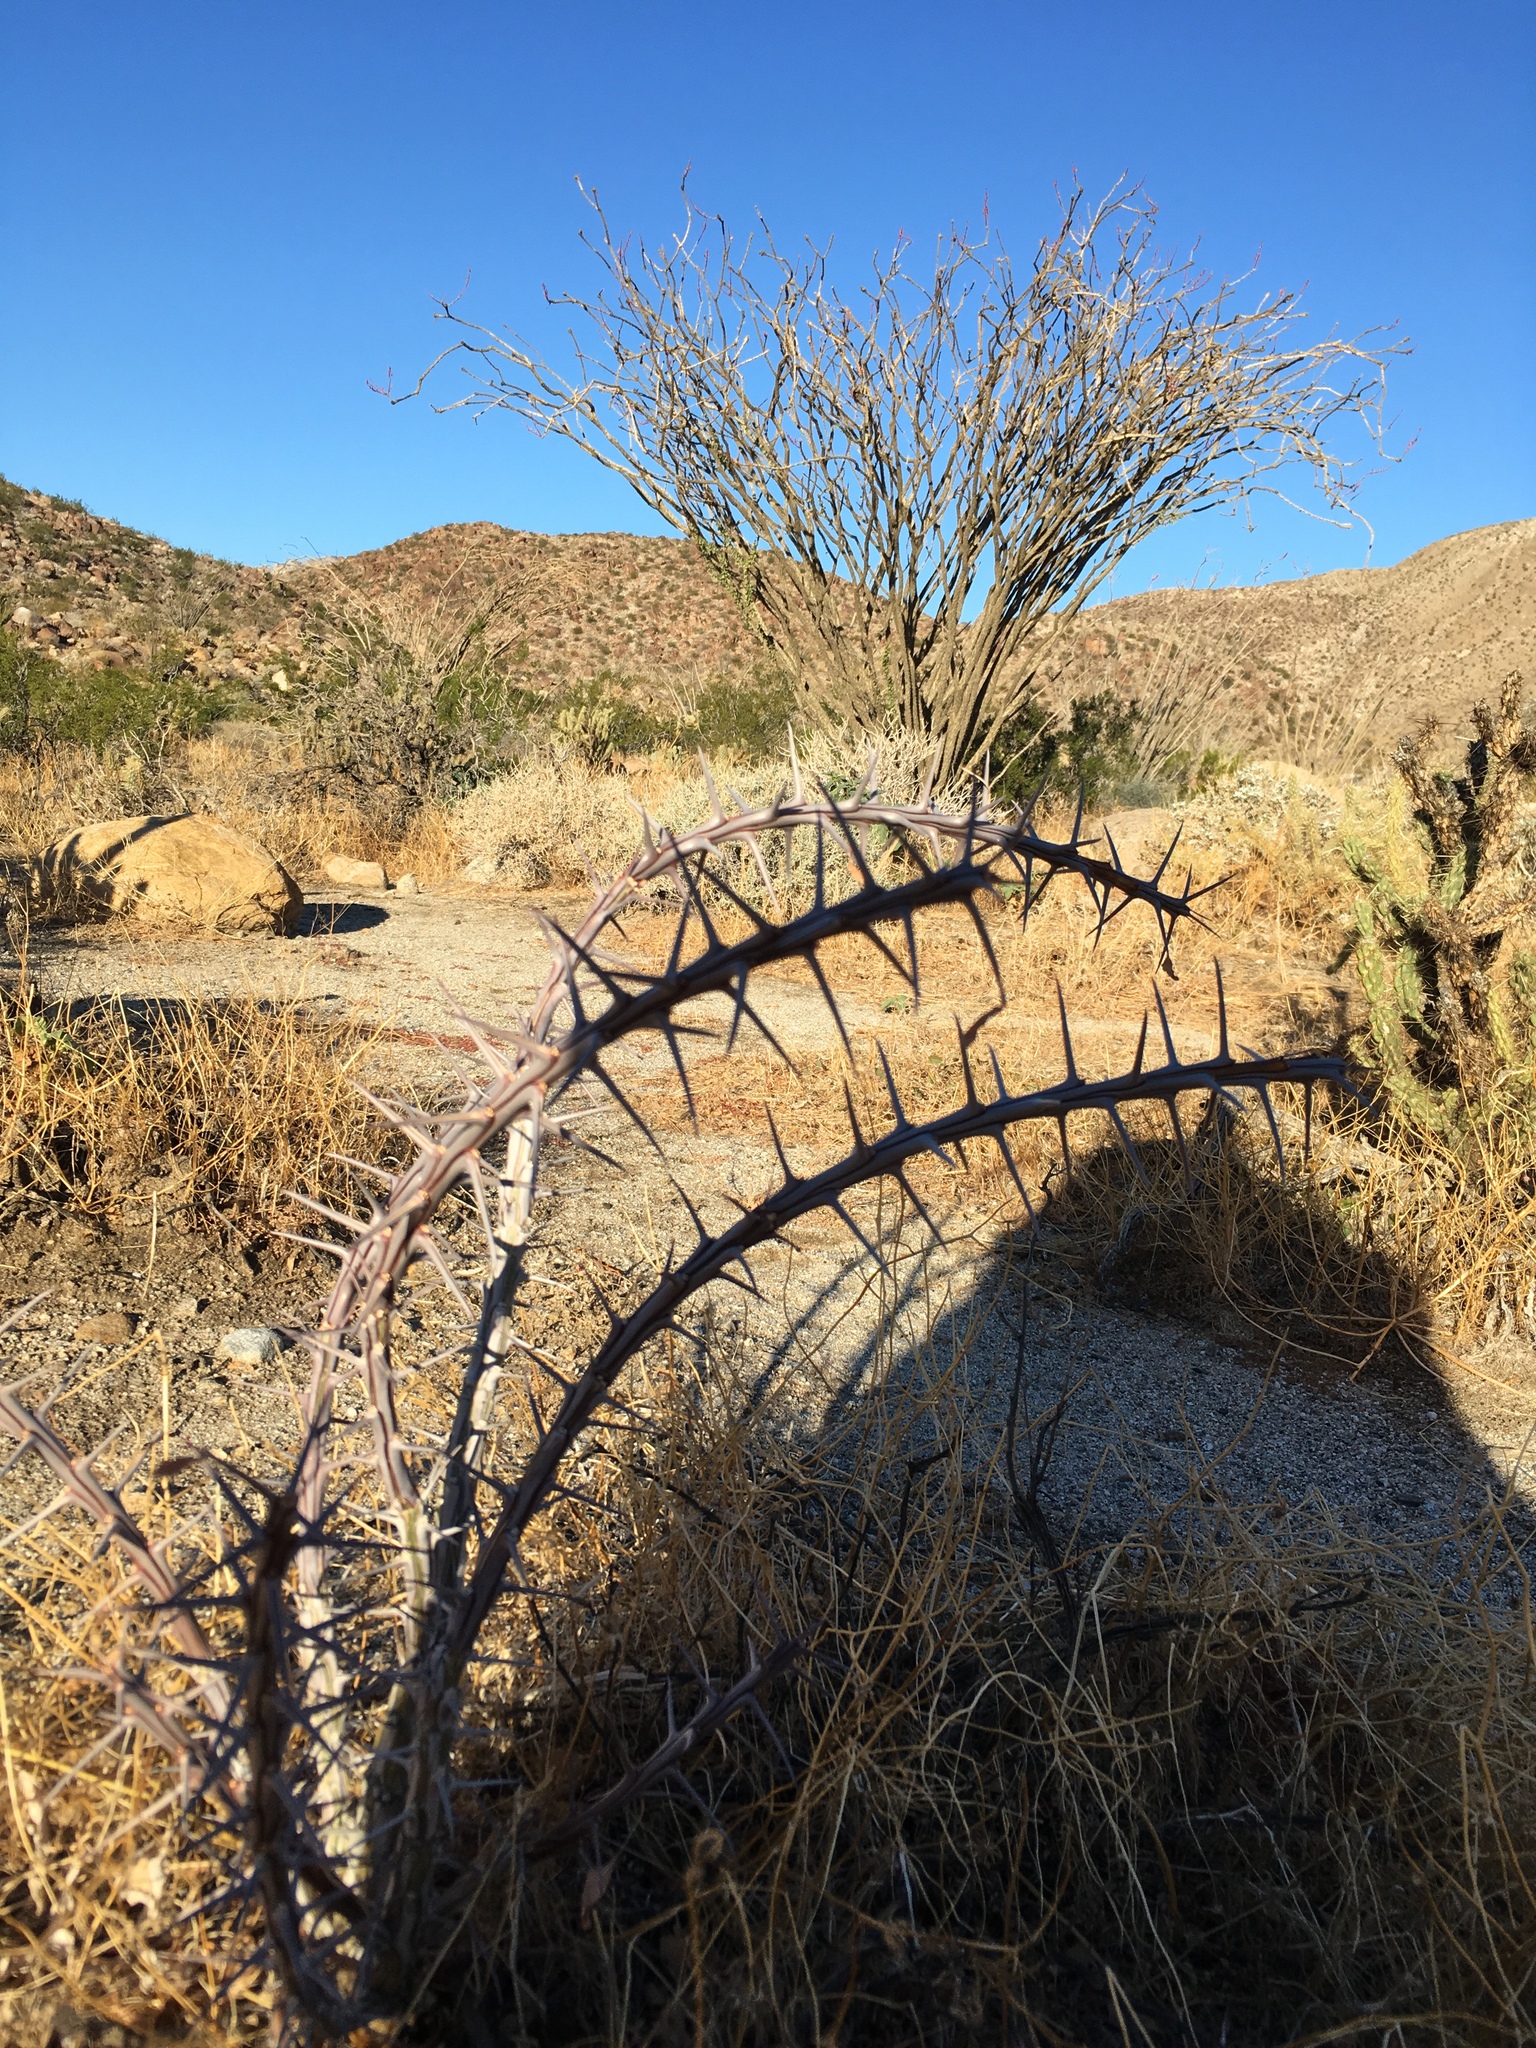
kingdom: Plantae
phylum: Tracheophyta
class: Magnoliopsida
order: Ericales
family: Fouquieriaceae
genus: Fouquieria
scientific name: Fouquieria splendens
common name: Vine-cactus
